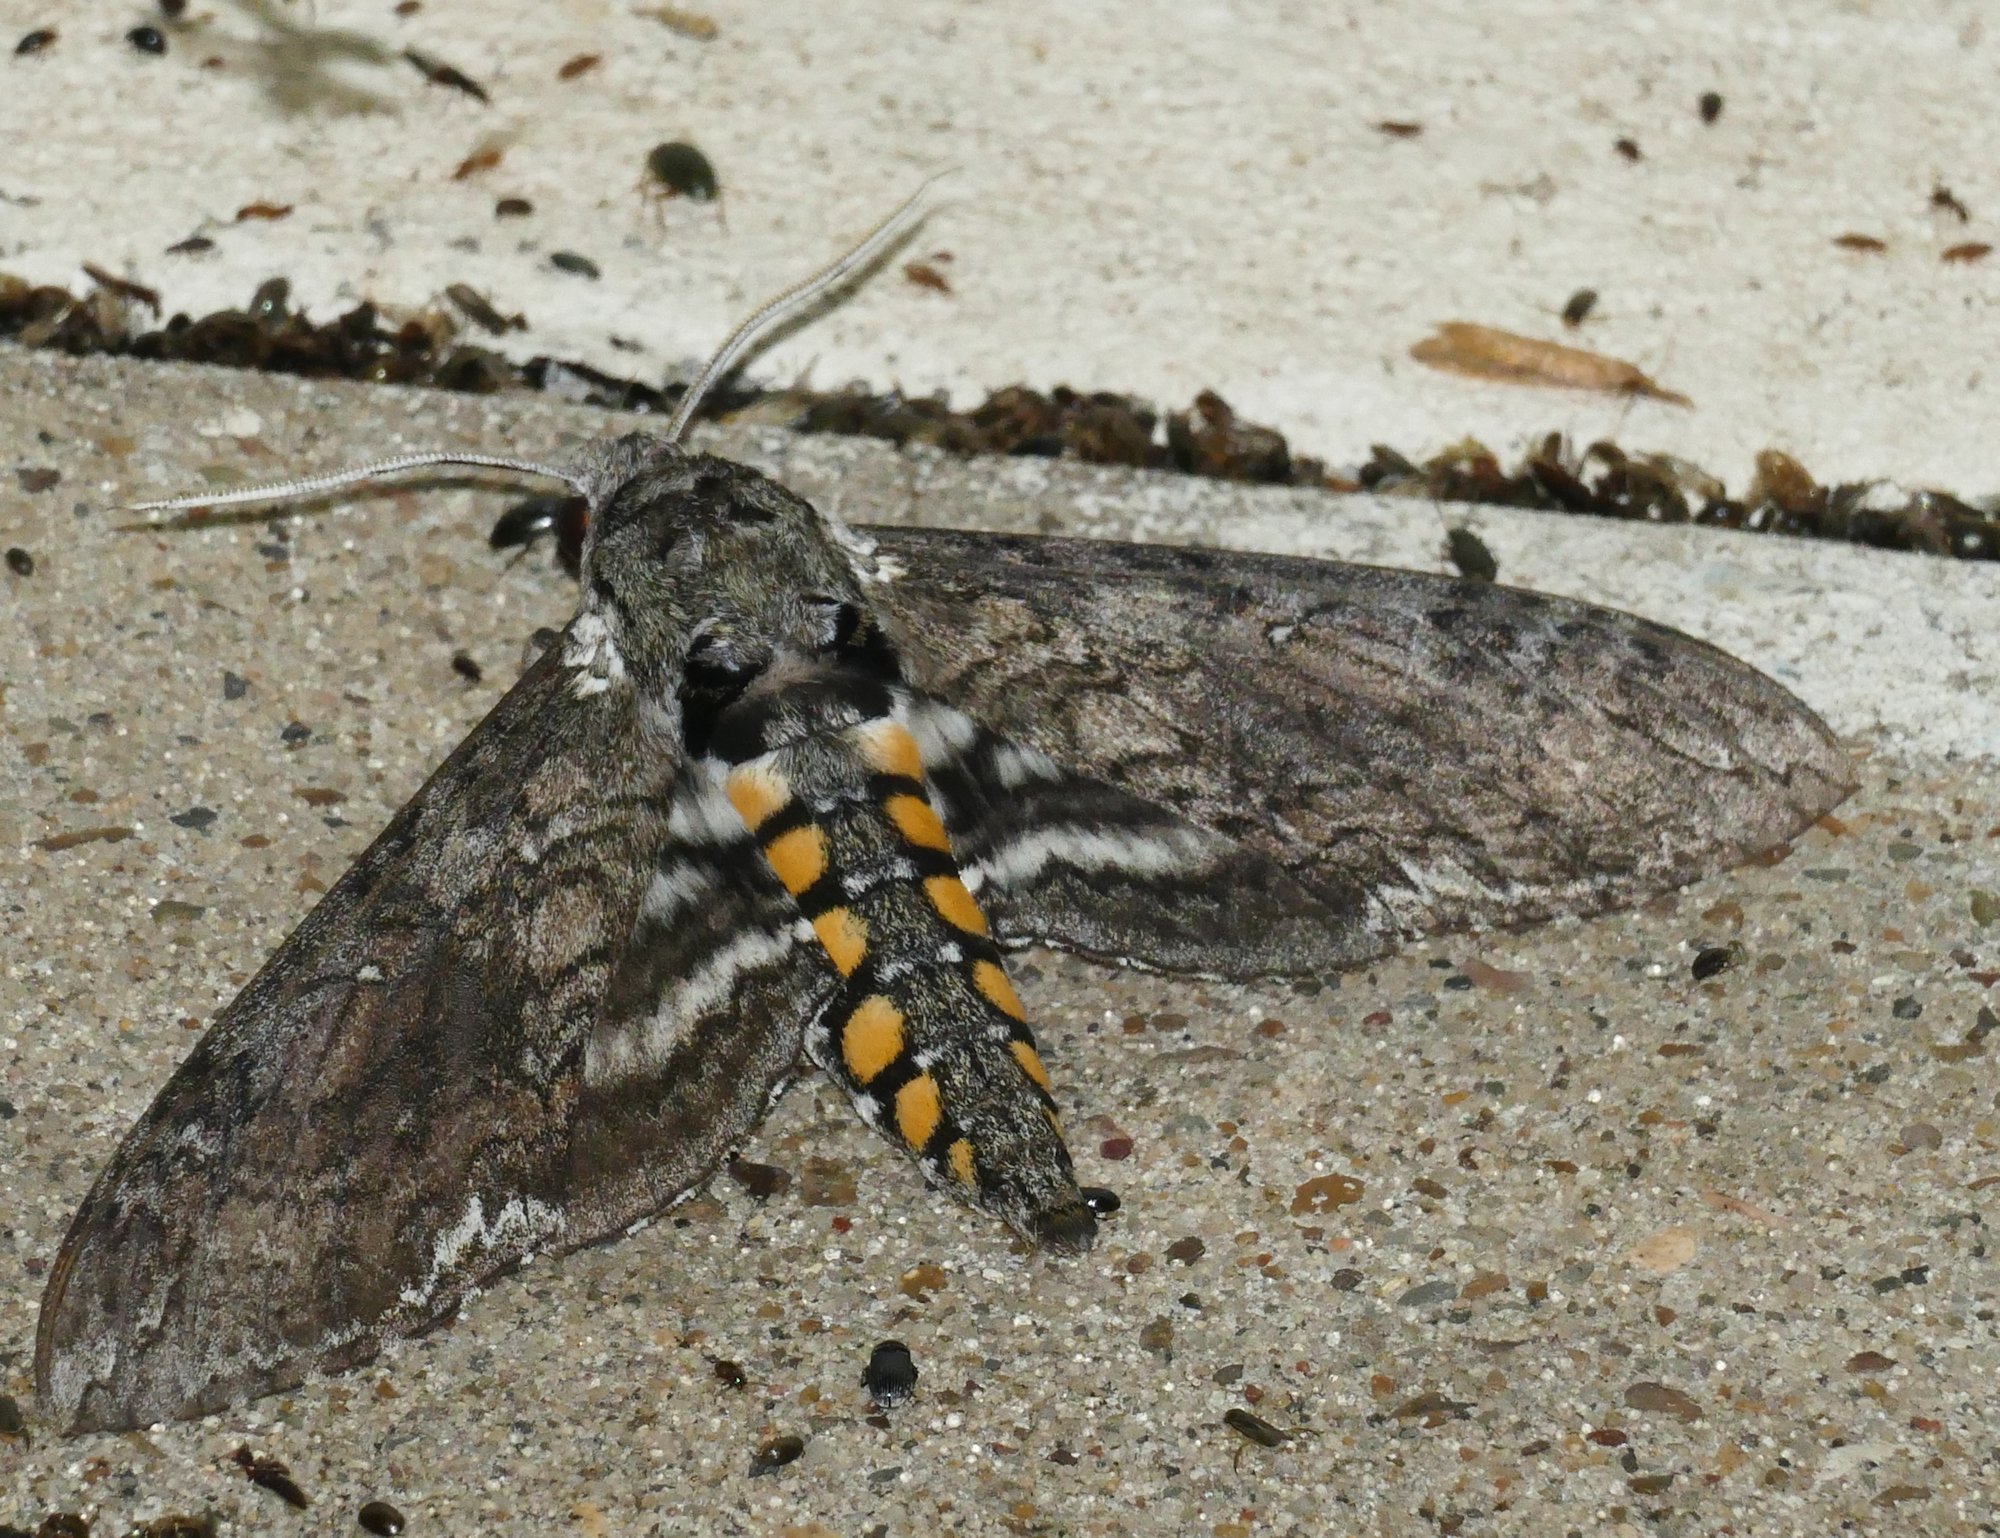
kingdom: Animalia
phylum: Arthropoda
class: Insecta
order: Lepidoptera
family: Sphingidae
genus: Manduca
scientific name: Manduca sexta
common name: Carolina sphinx
